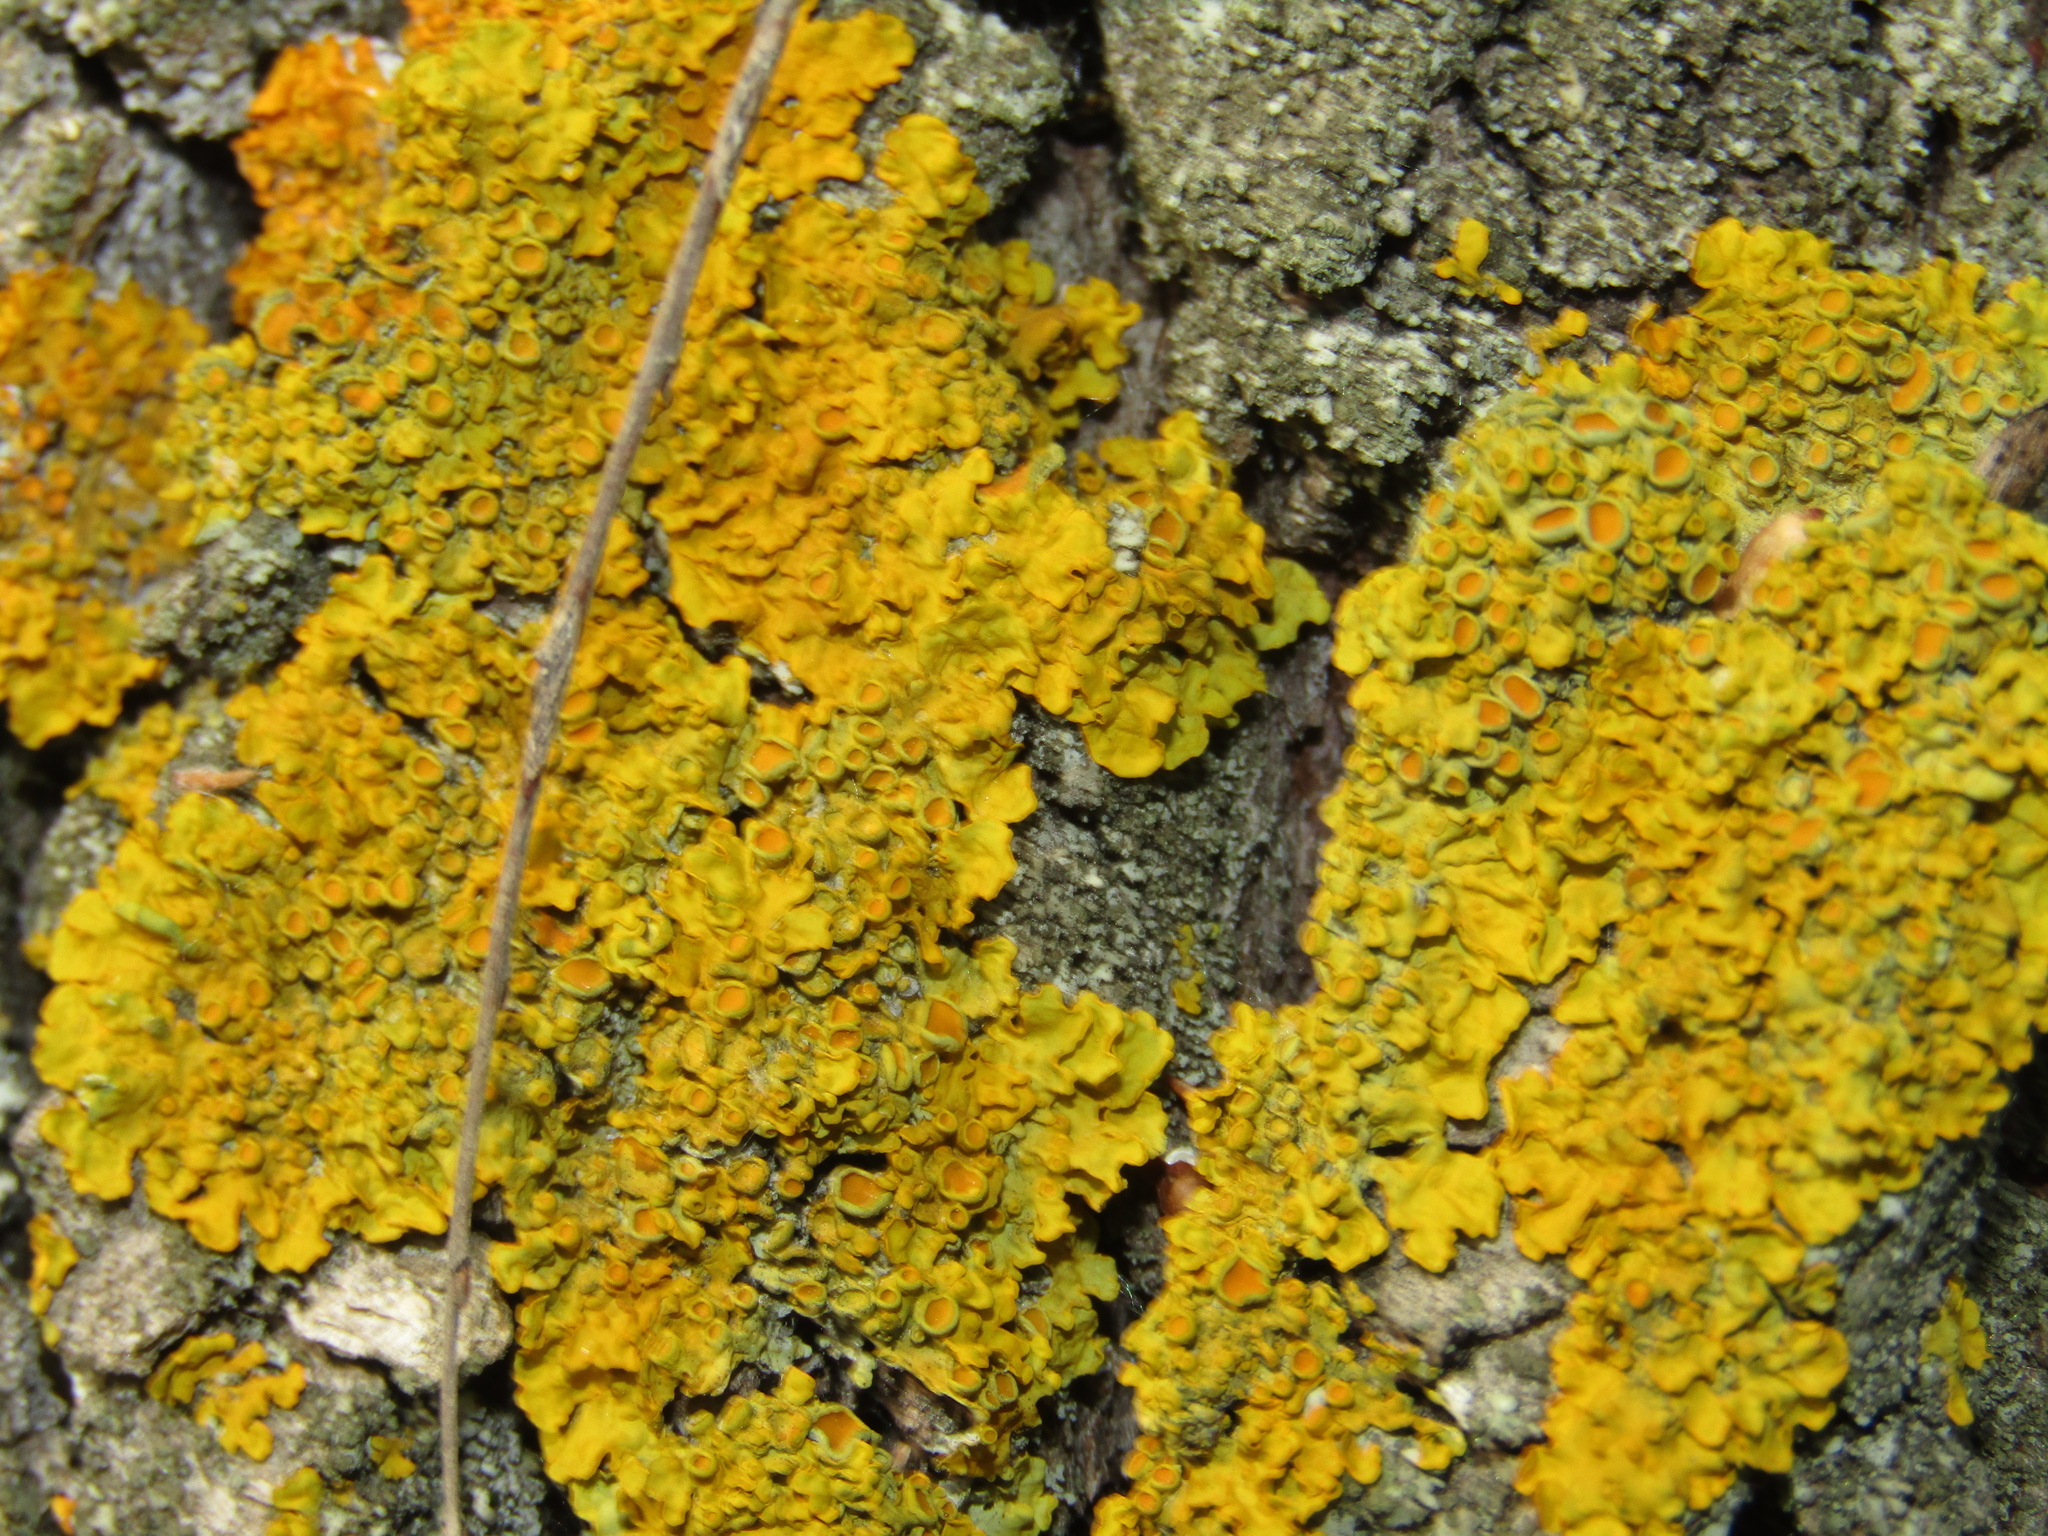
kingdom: Fungi
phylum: Ascomycota
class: Lecanoromycetes
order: Teloschistales
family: Teloschistaceae
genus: Xanthoria
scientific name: Xanthoria parietina
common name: Common orange lichen
